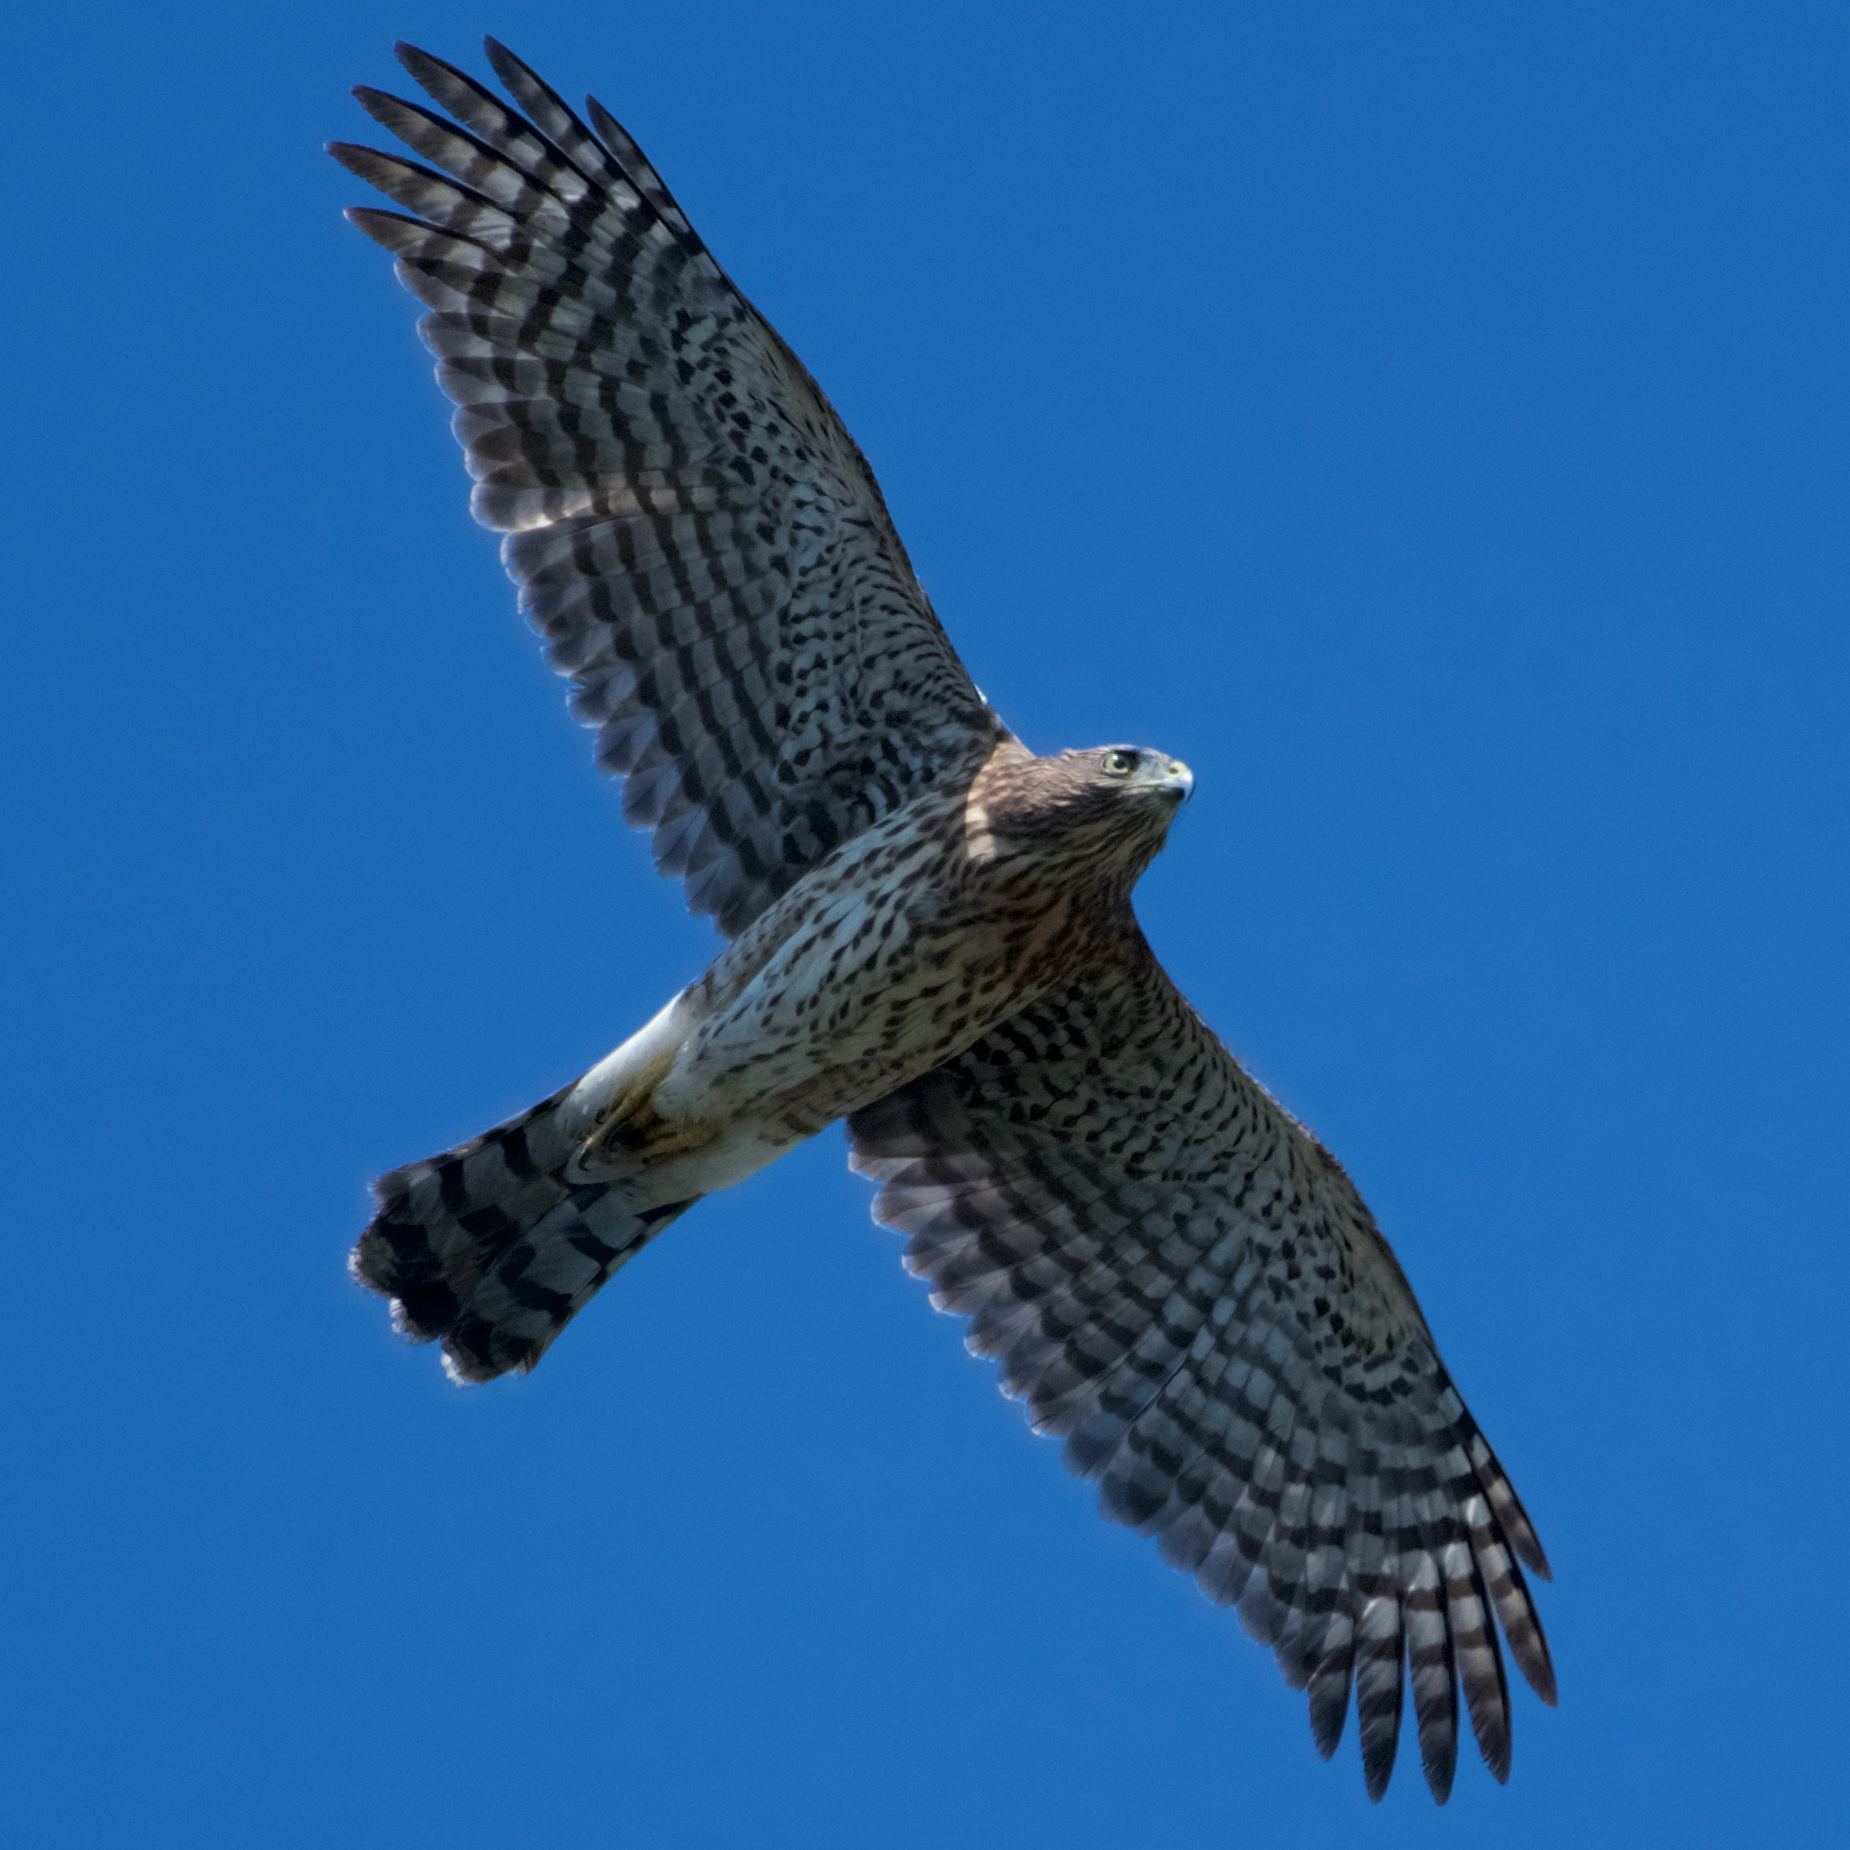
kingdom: Animalia
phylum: Chordata
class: Aves
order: Accipitriformes
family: Accipitridae
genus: Accipiter
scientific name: Accipiter cooperii
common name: Cooper's hawk
